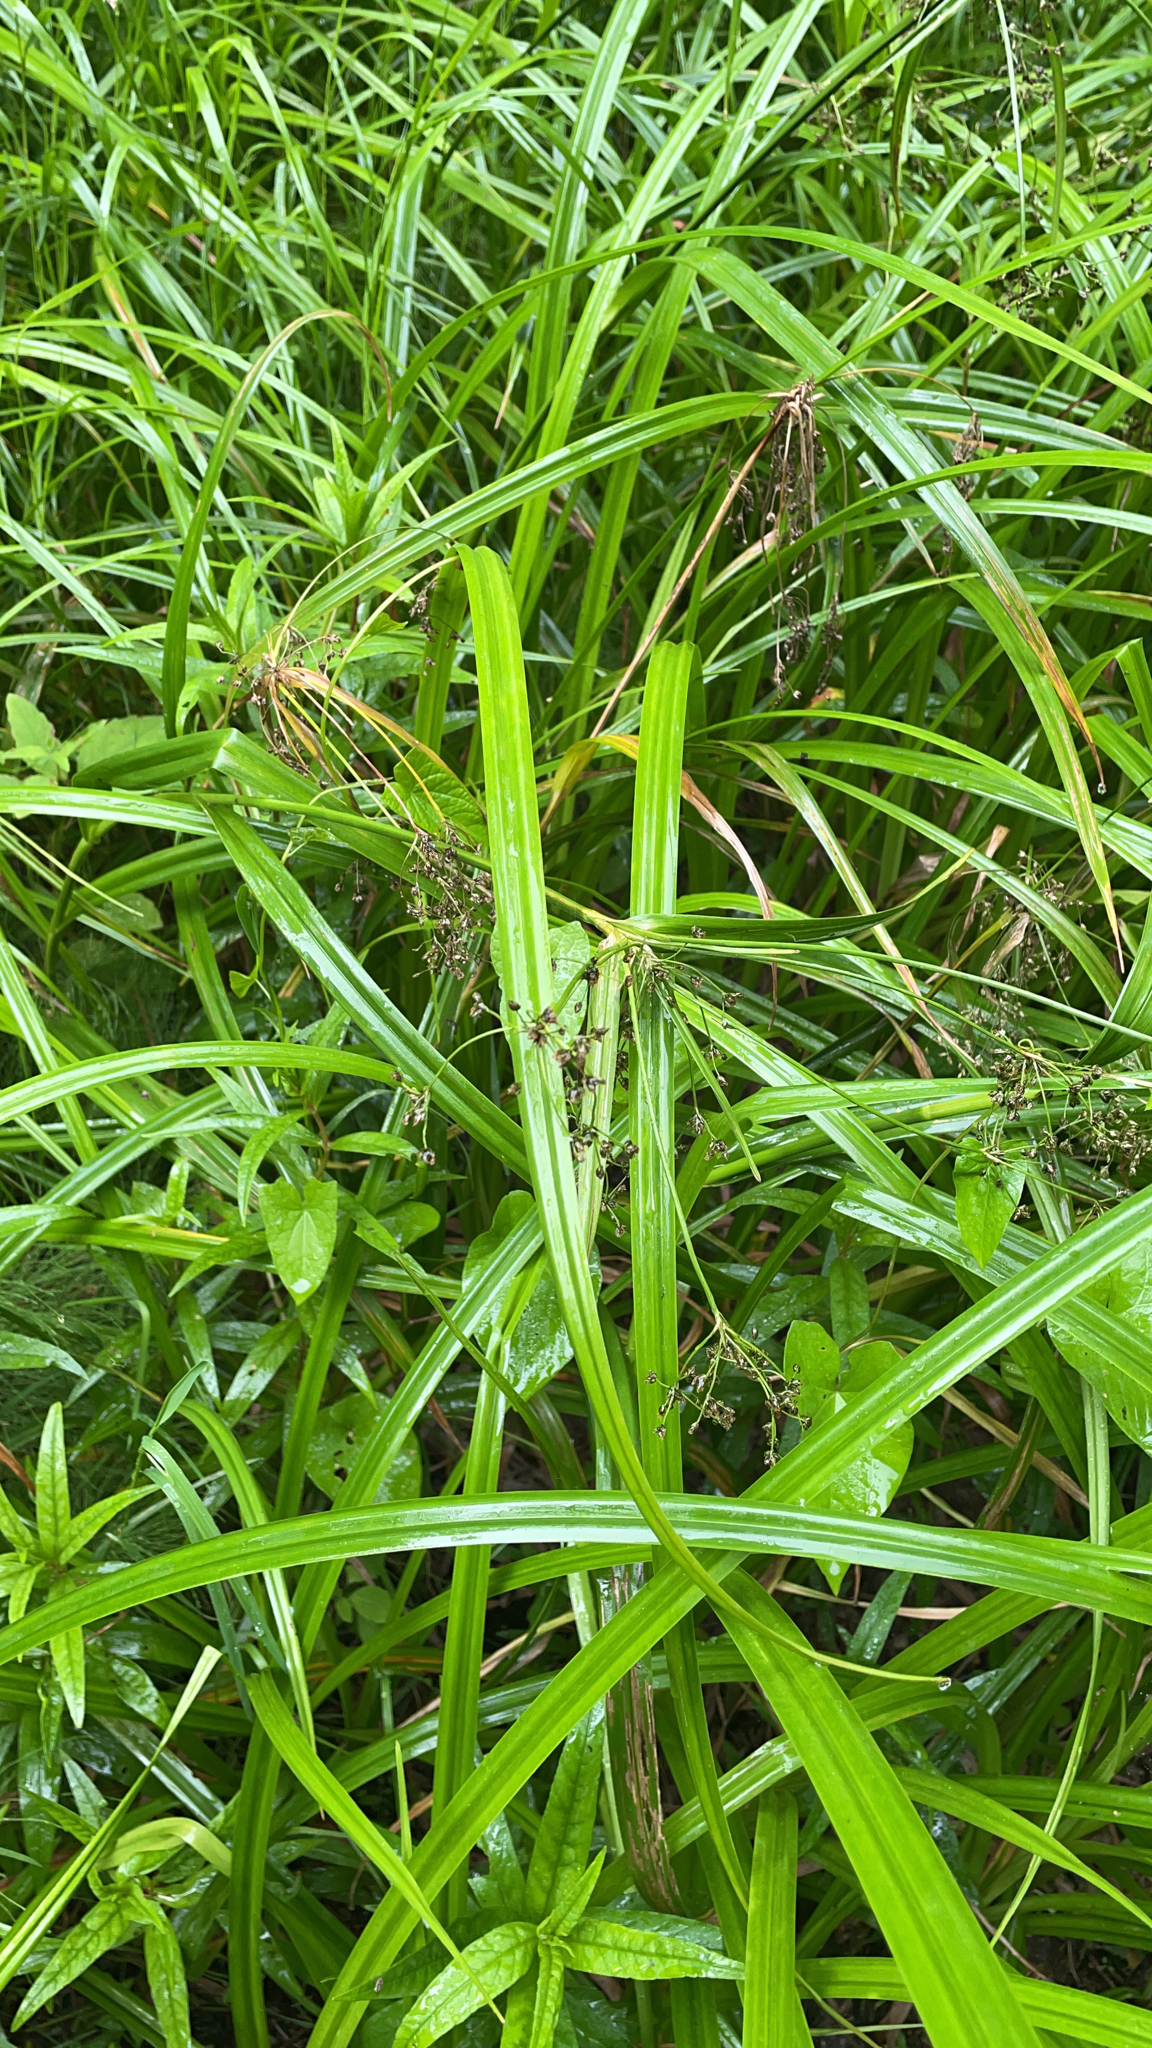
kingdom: Plantae
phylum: Tracheophyta
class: Liliopsida
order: Poales
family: Cyperaceae
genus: Scirpus
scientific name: Scirpus sylvaticus
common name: Wood club-rush
